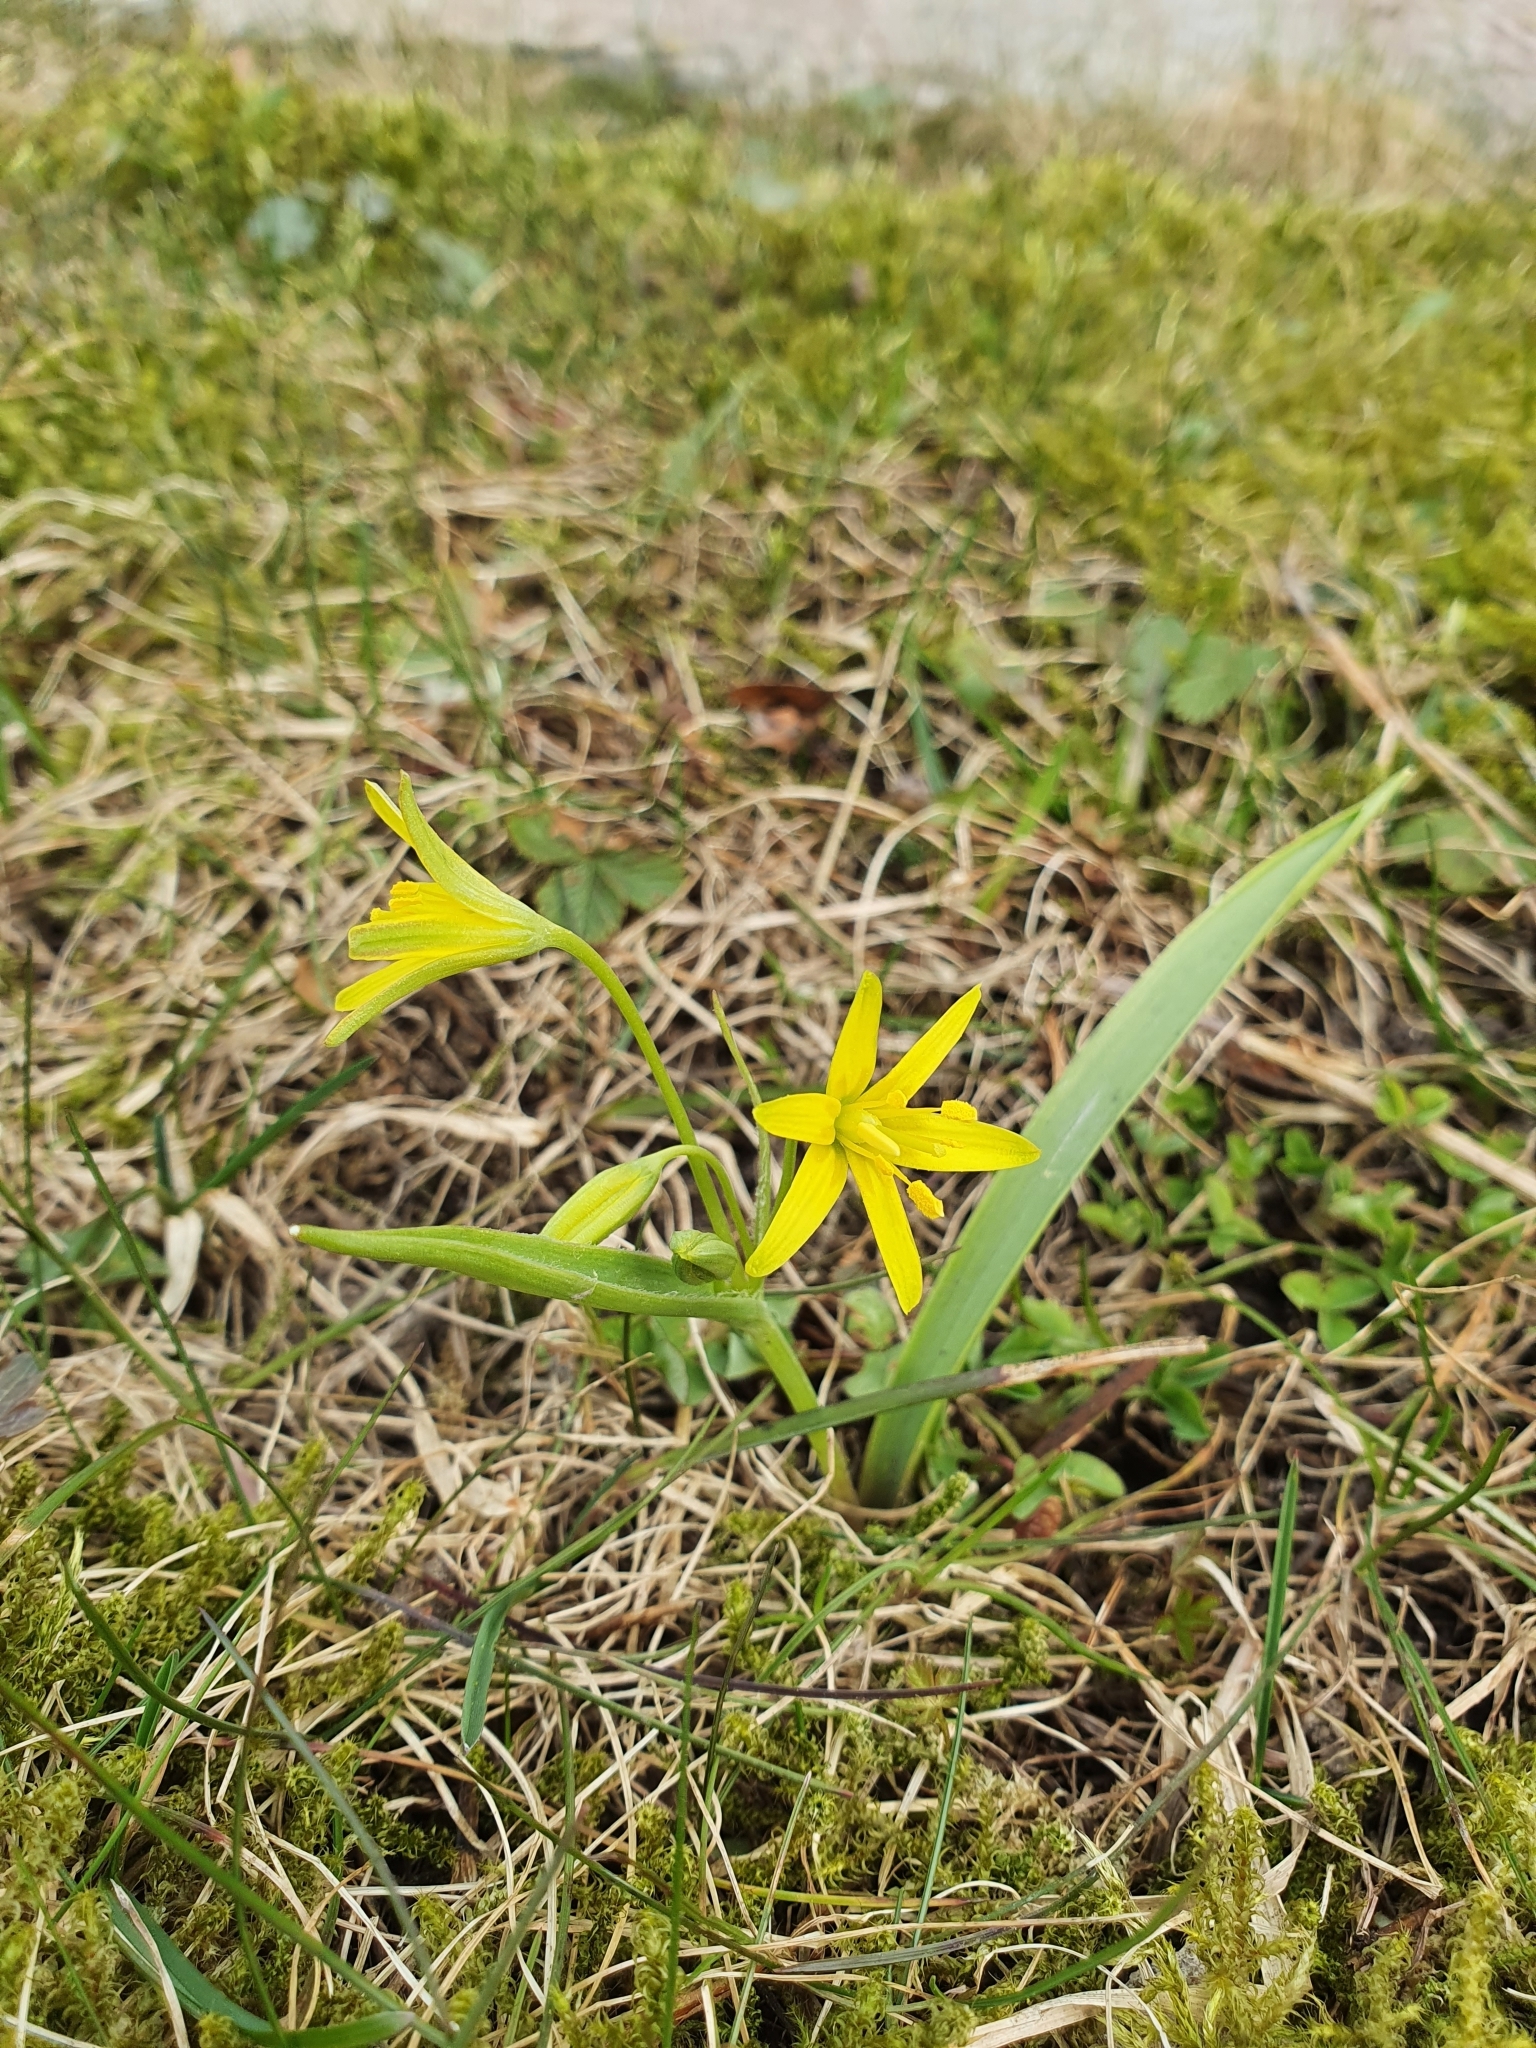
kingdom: Plantae
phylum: Tracheophyta
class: Liliopsida
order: Liliales
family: Liliaceae
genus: Gagea
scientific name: Gagea lutea
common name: Yellow star-of-bethlehem
